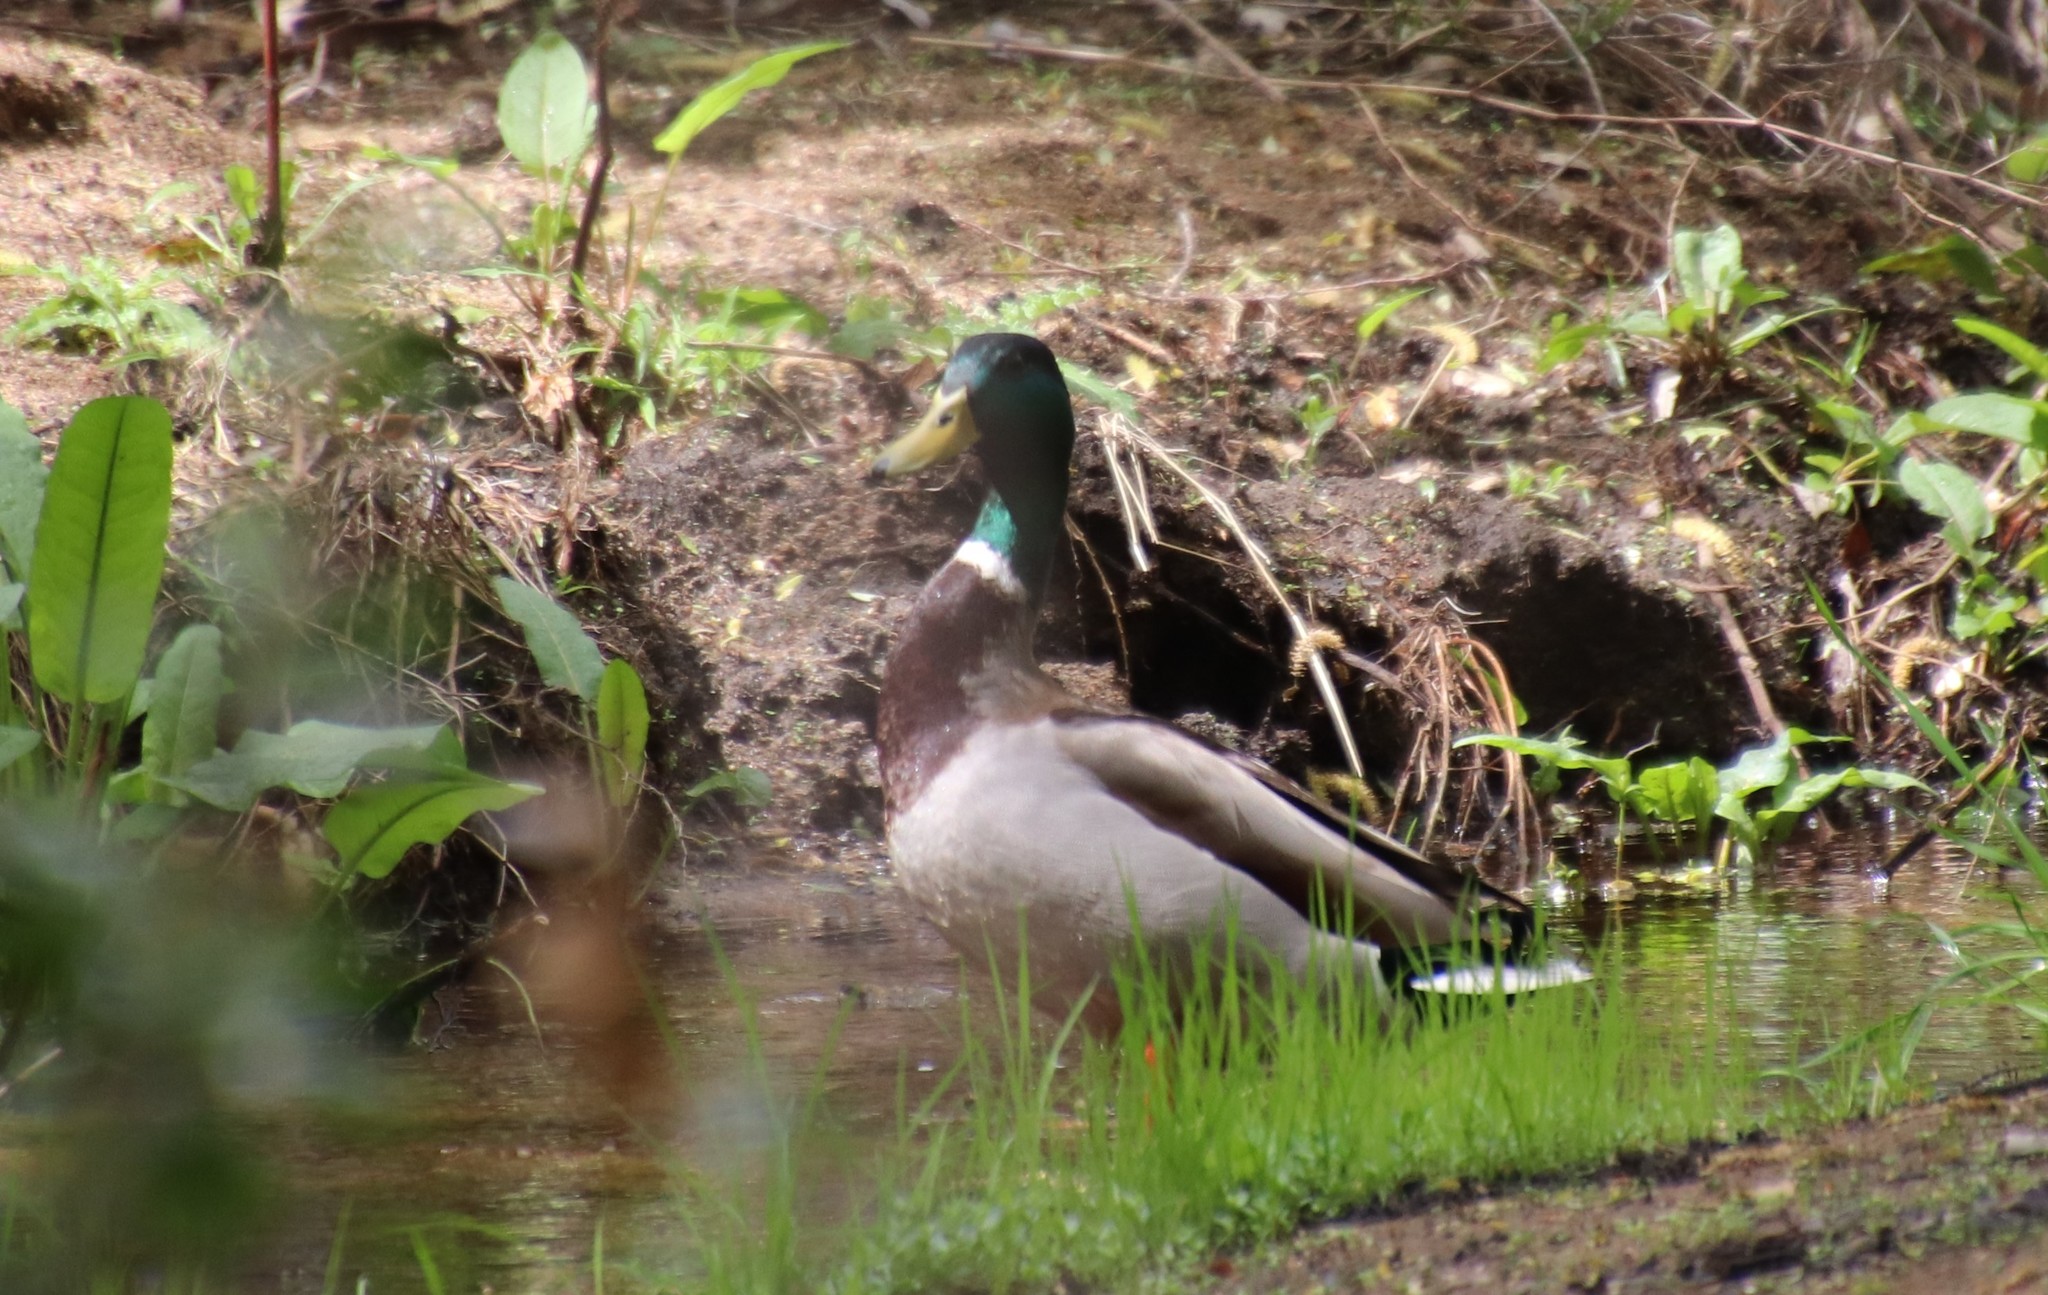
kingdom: Animalia
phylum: Chordata
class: Aves
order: Anseriformes
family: Anatidae
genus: Anas
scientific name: Anas platyrhynchos
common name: Mallard
